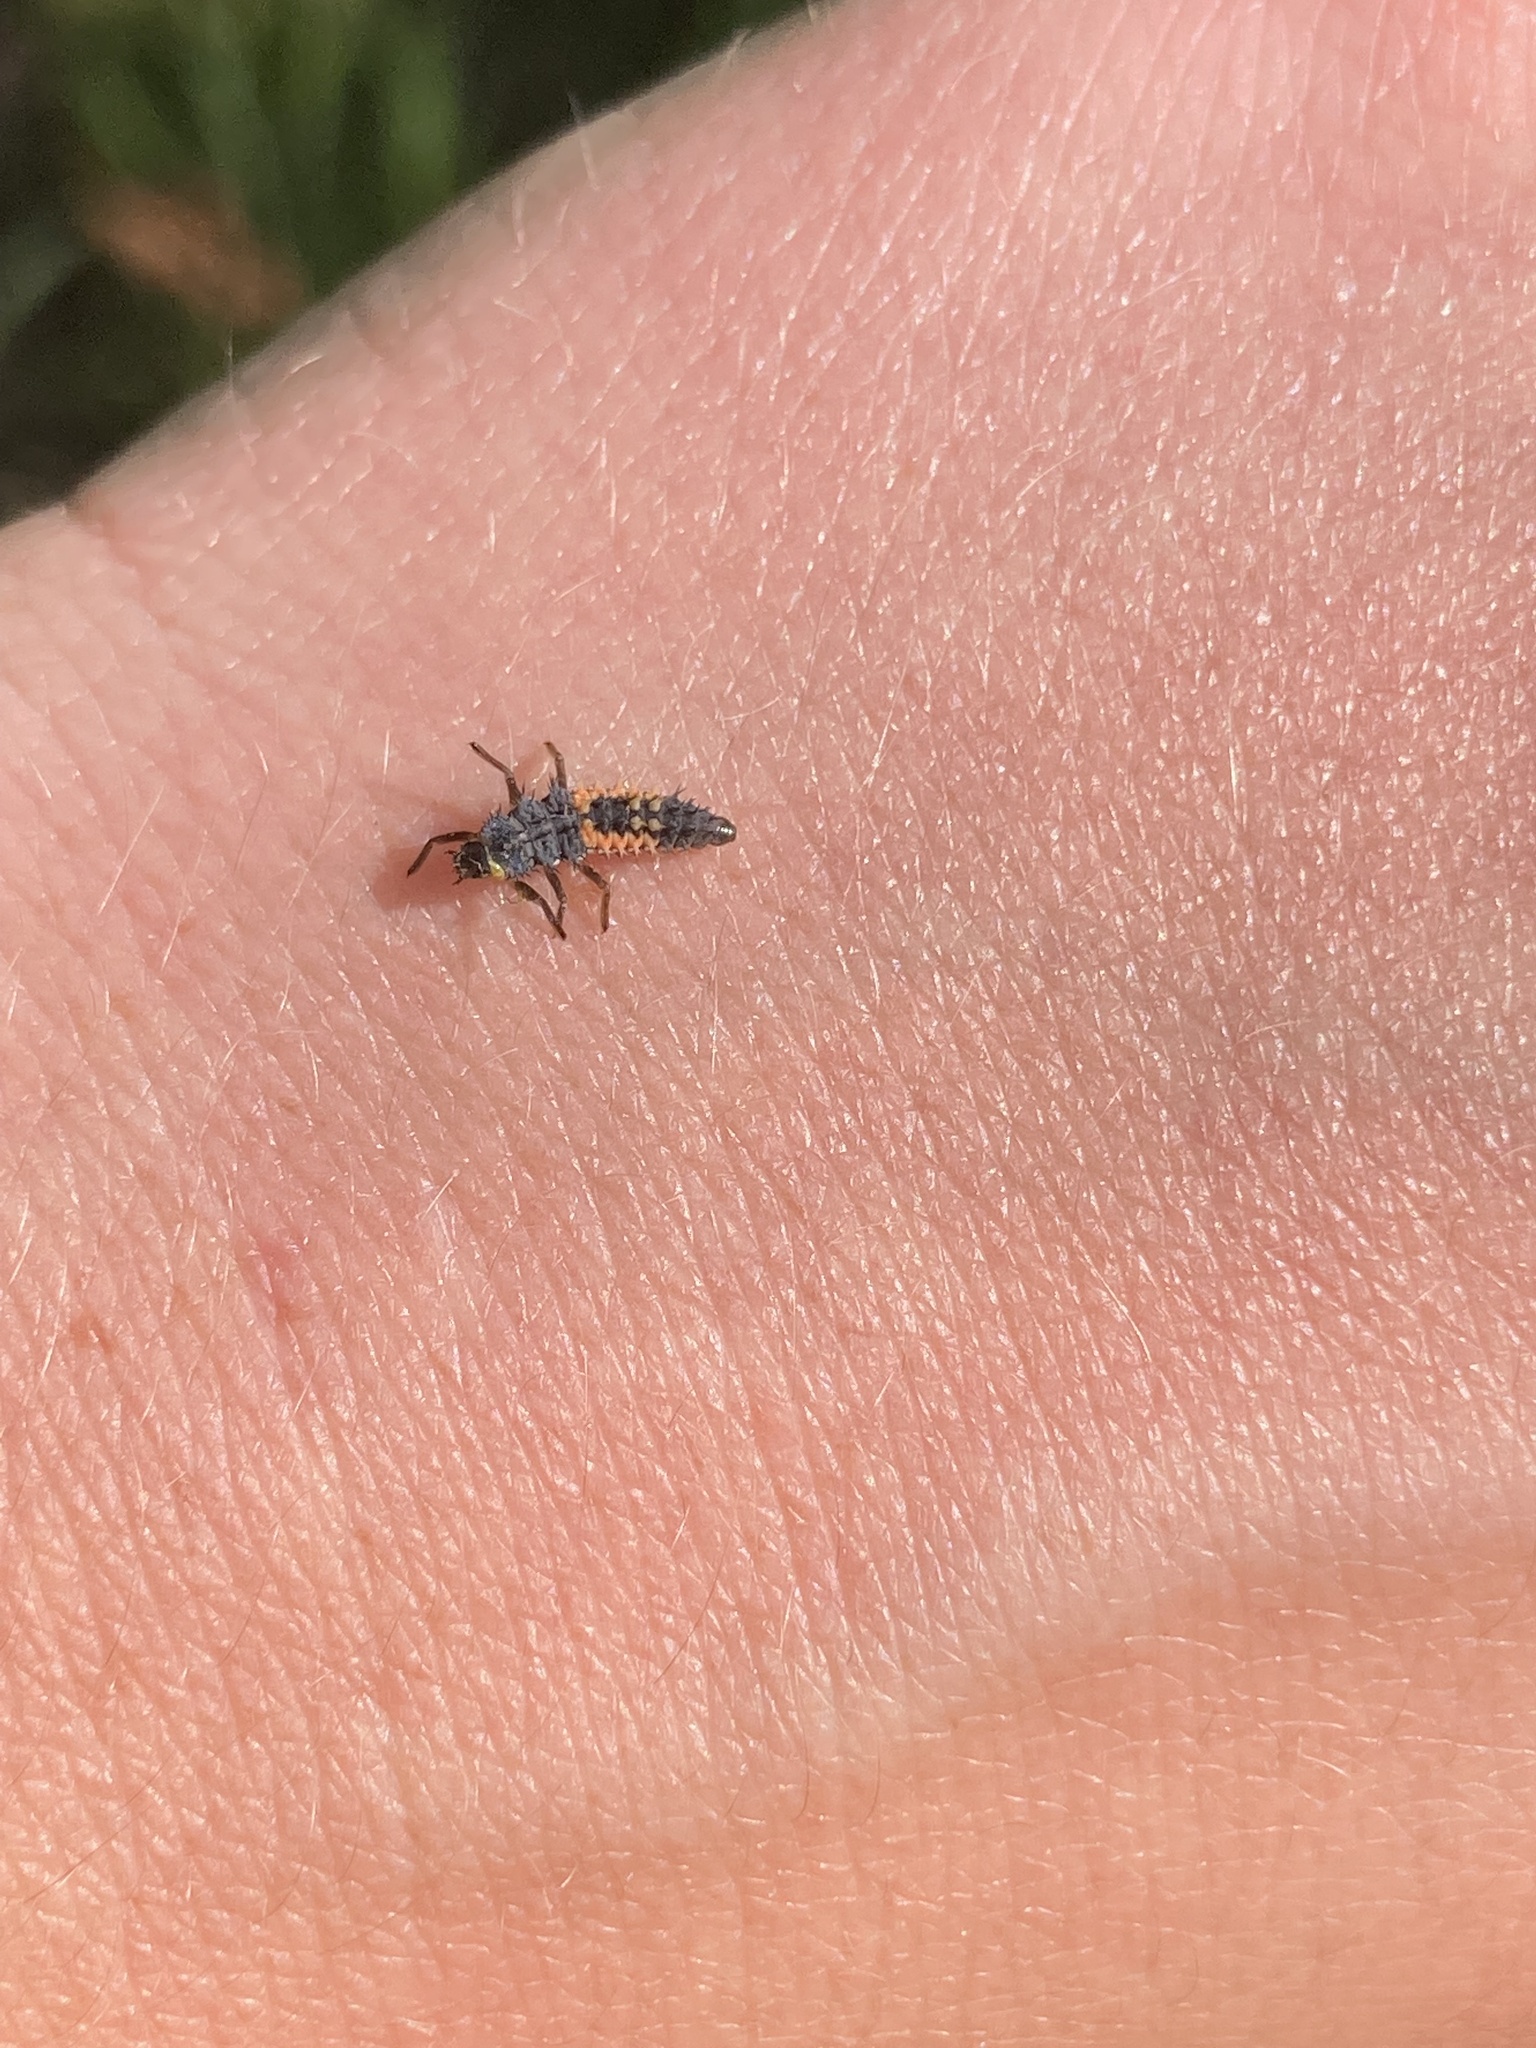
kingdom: Animalia
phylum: Arthropoda
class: Insecta
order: Coleoptera
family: Coccinellidae
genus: Harmonia
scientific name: Harmonia axyridis
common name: Harlequin ladybird
